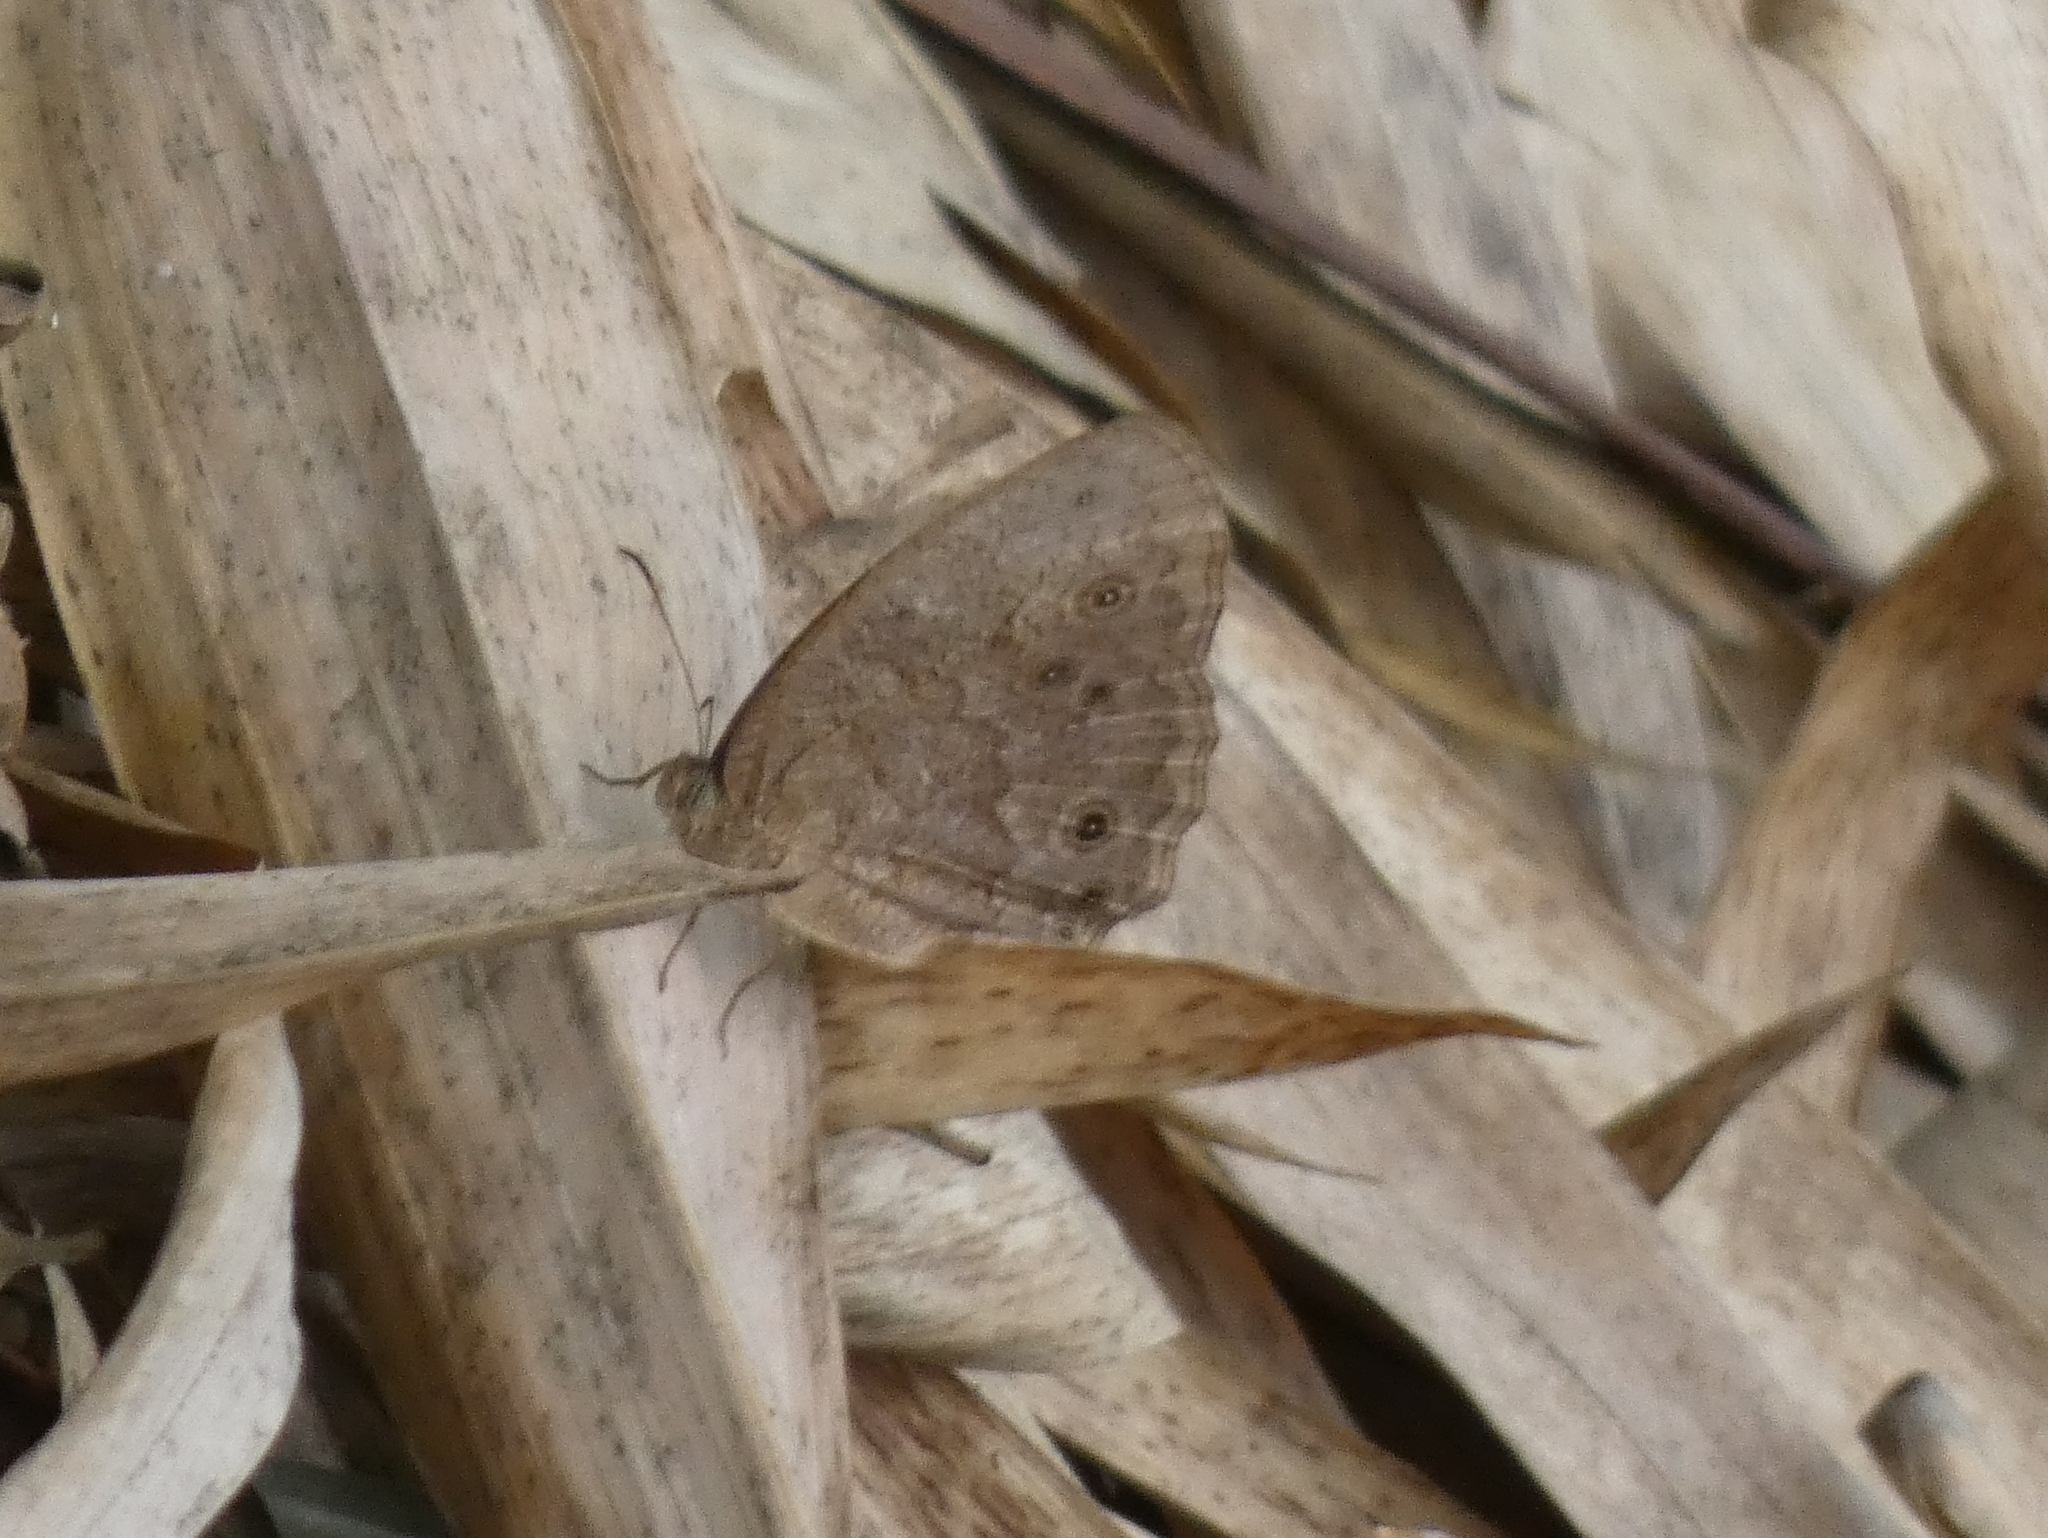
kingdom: Animalia
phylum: Arthropoda
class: Insecta
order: Lepidoptera
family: Nymphalidae
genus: Mycalesis
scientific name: Mycalesis vulgaris
